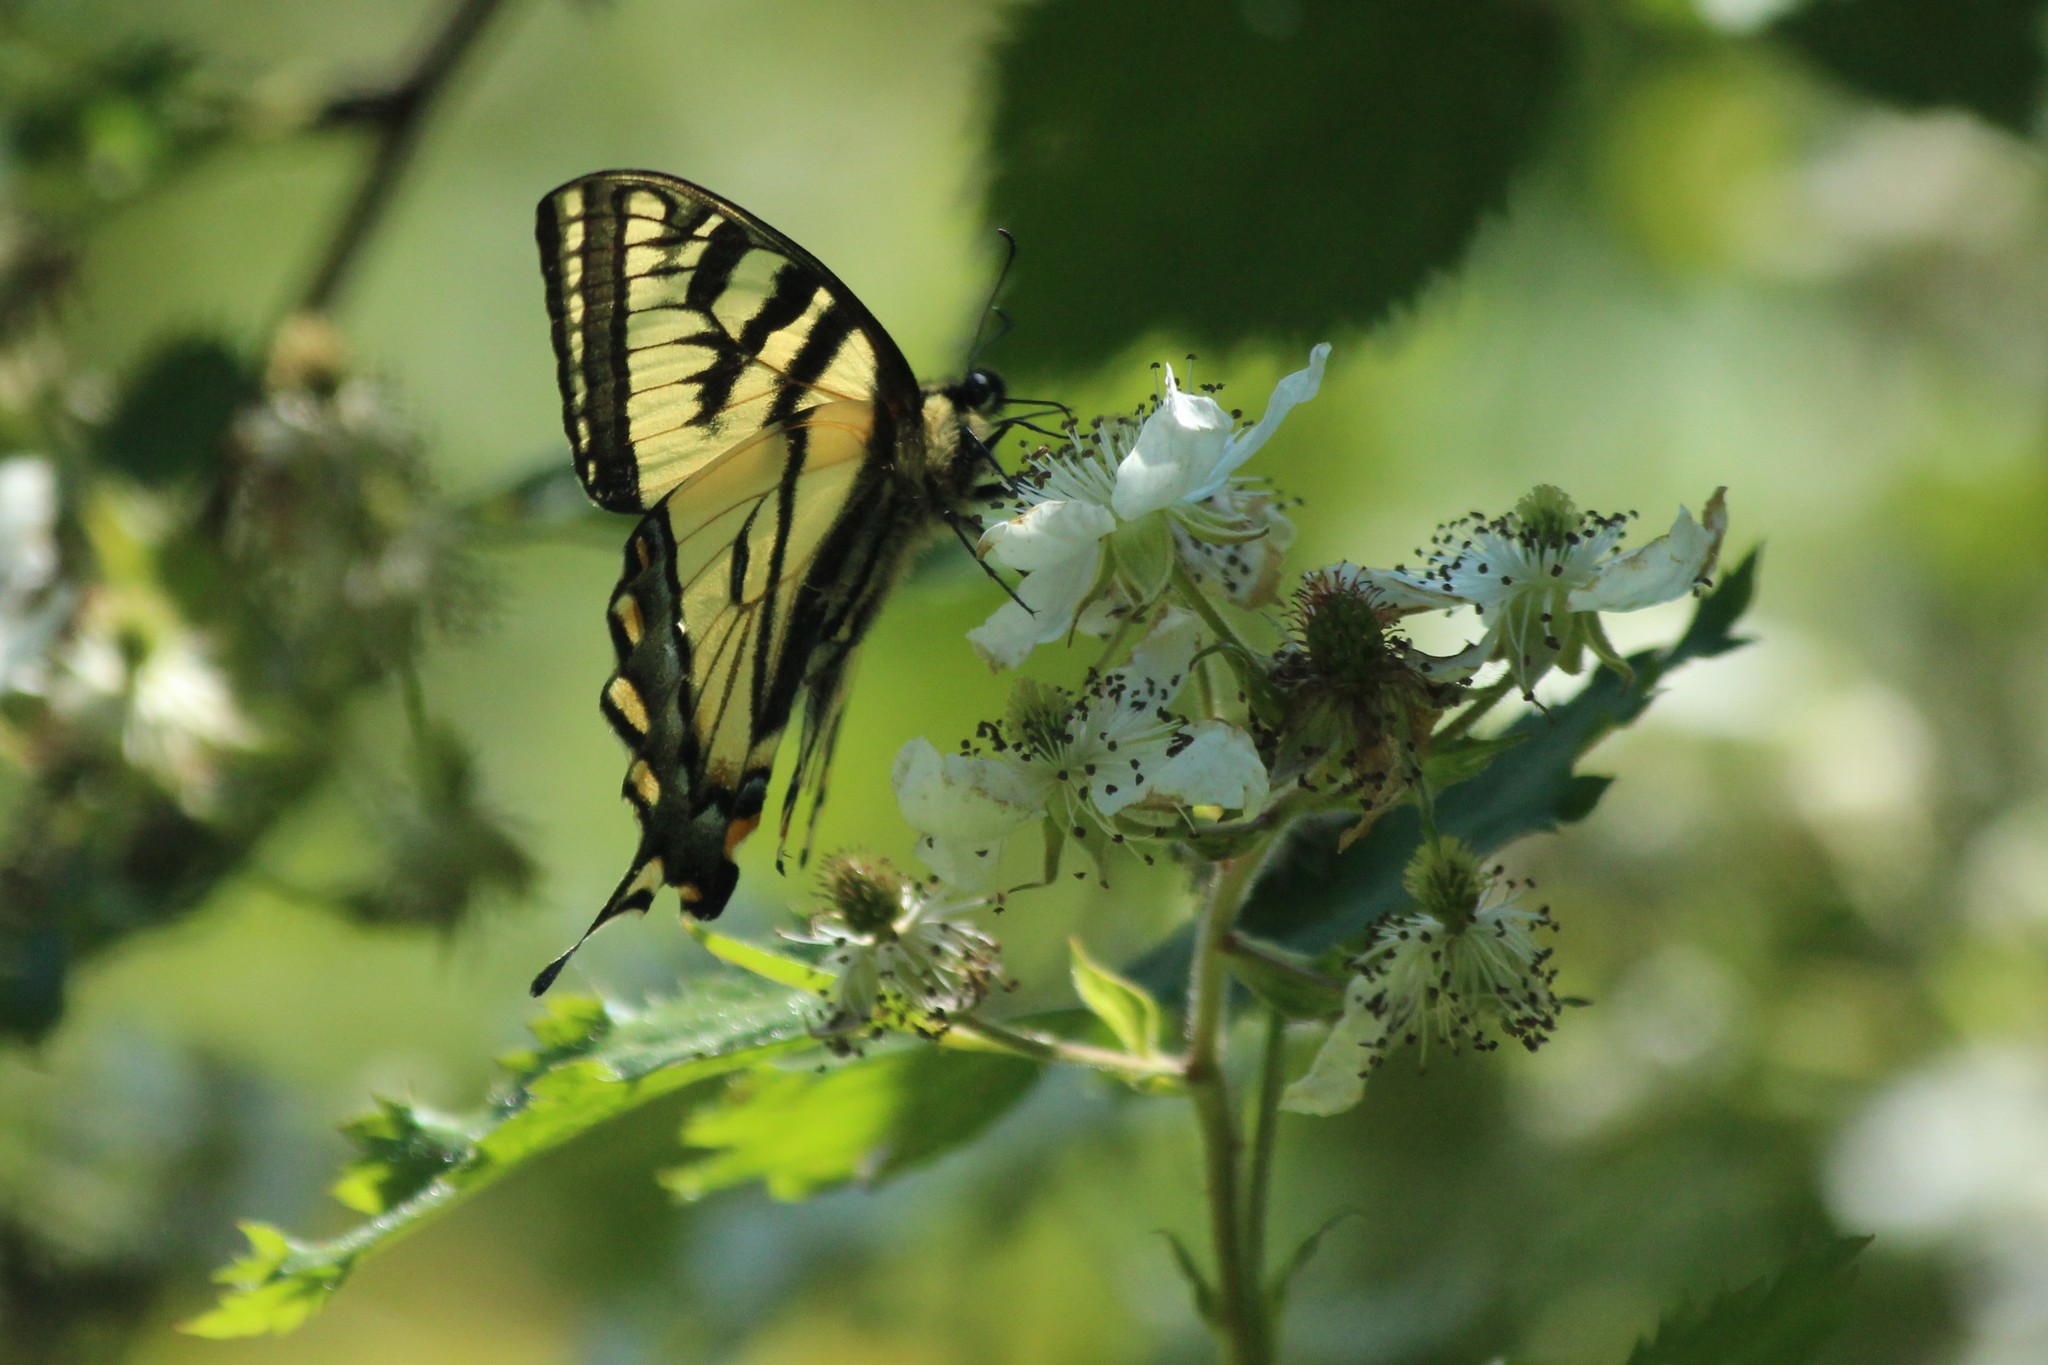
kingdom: Animalia
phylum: Arthropoda
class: Insecta
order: Lepidoptera
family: Papilionidae
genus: Papilio
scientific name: Papilio rutulus
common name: Western tiger swallowtail
